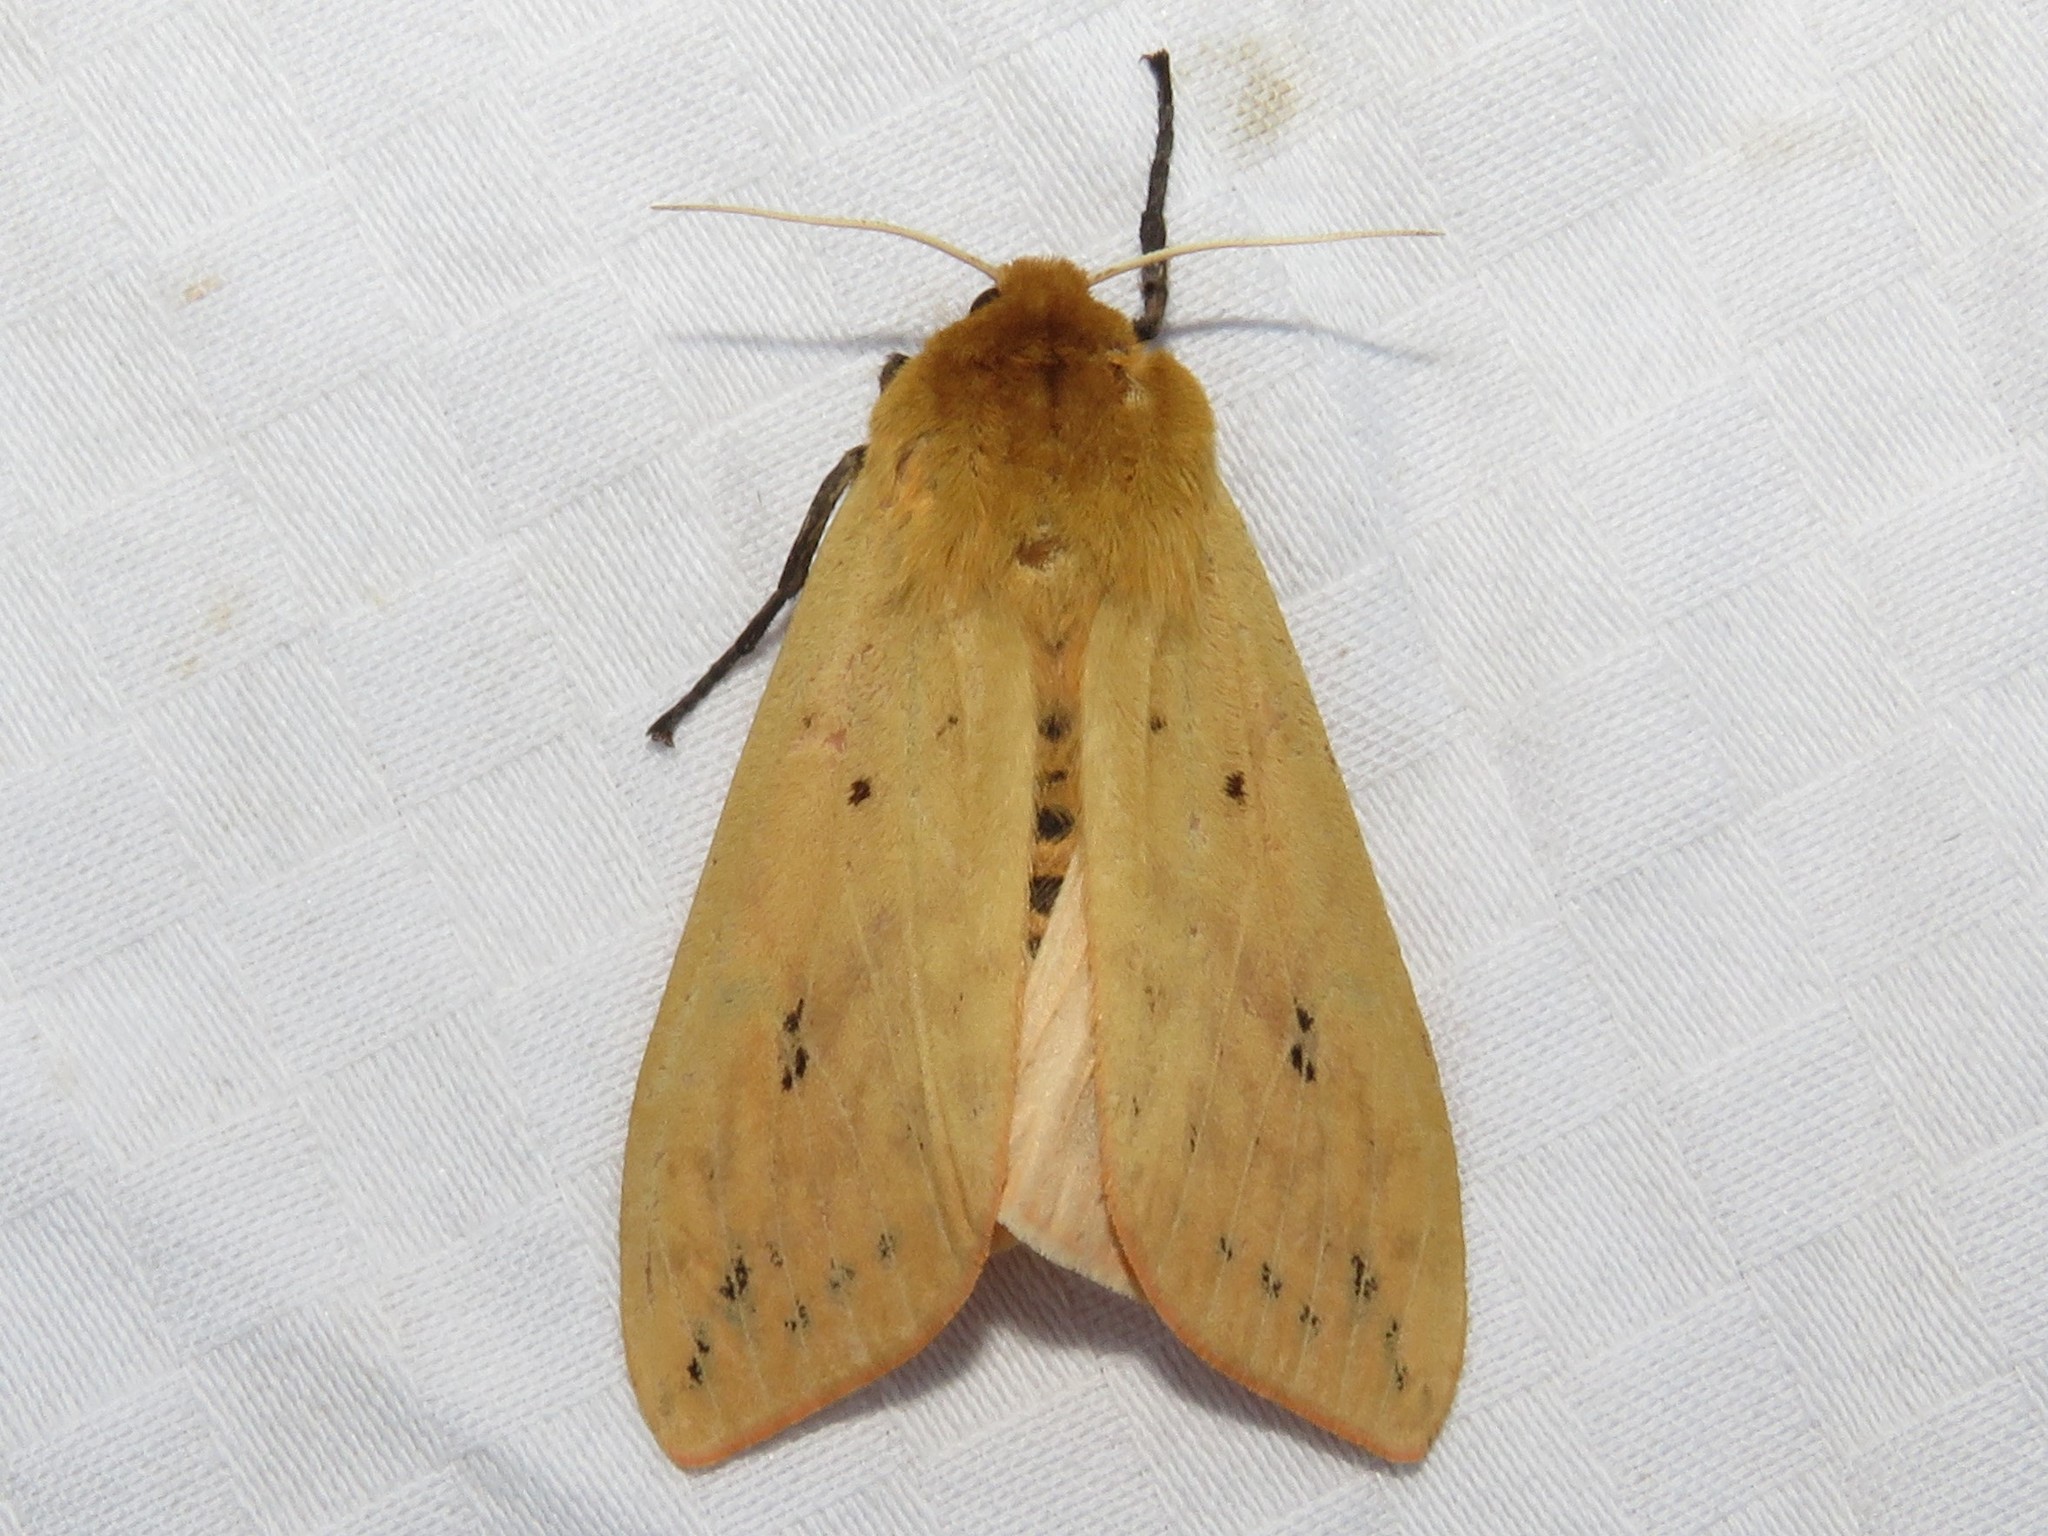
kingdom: Animalia
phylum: Arthropoda
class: Insecta
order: Lepidoptera
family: Erebidae
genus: Pyrrharctia
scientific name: Pyrrharctia isabella
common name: Isabella tiger moth
